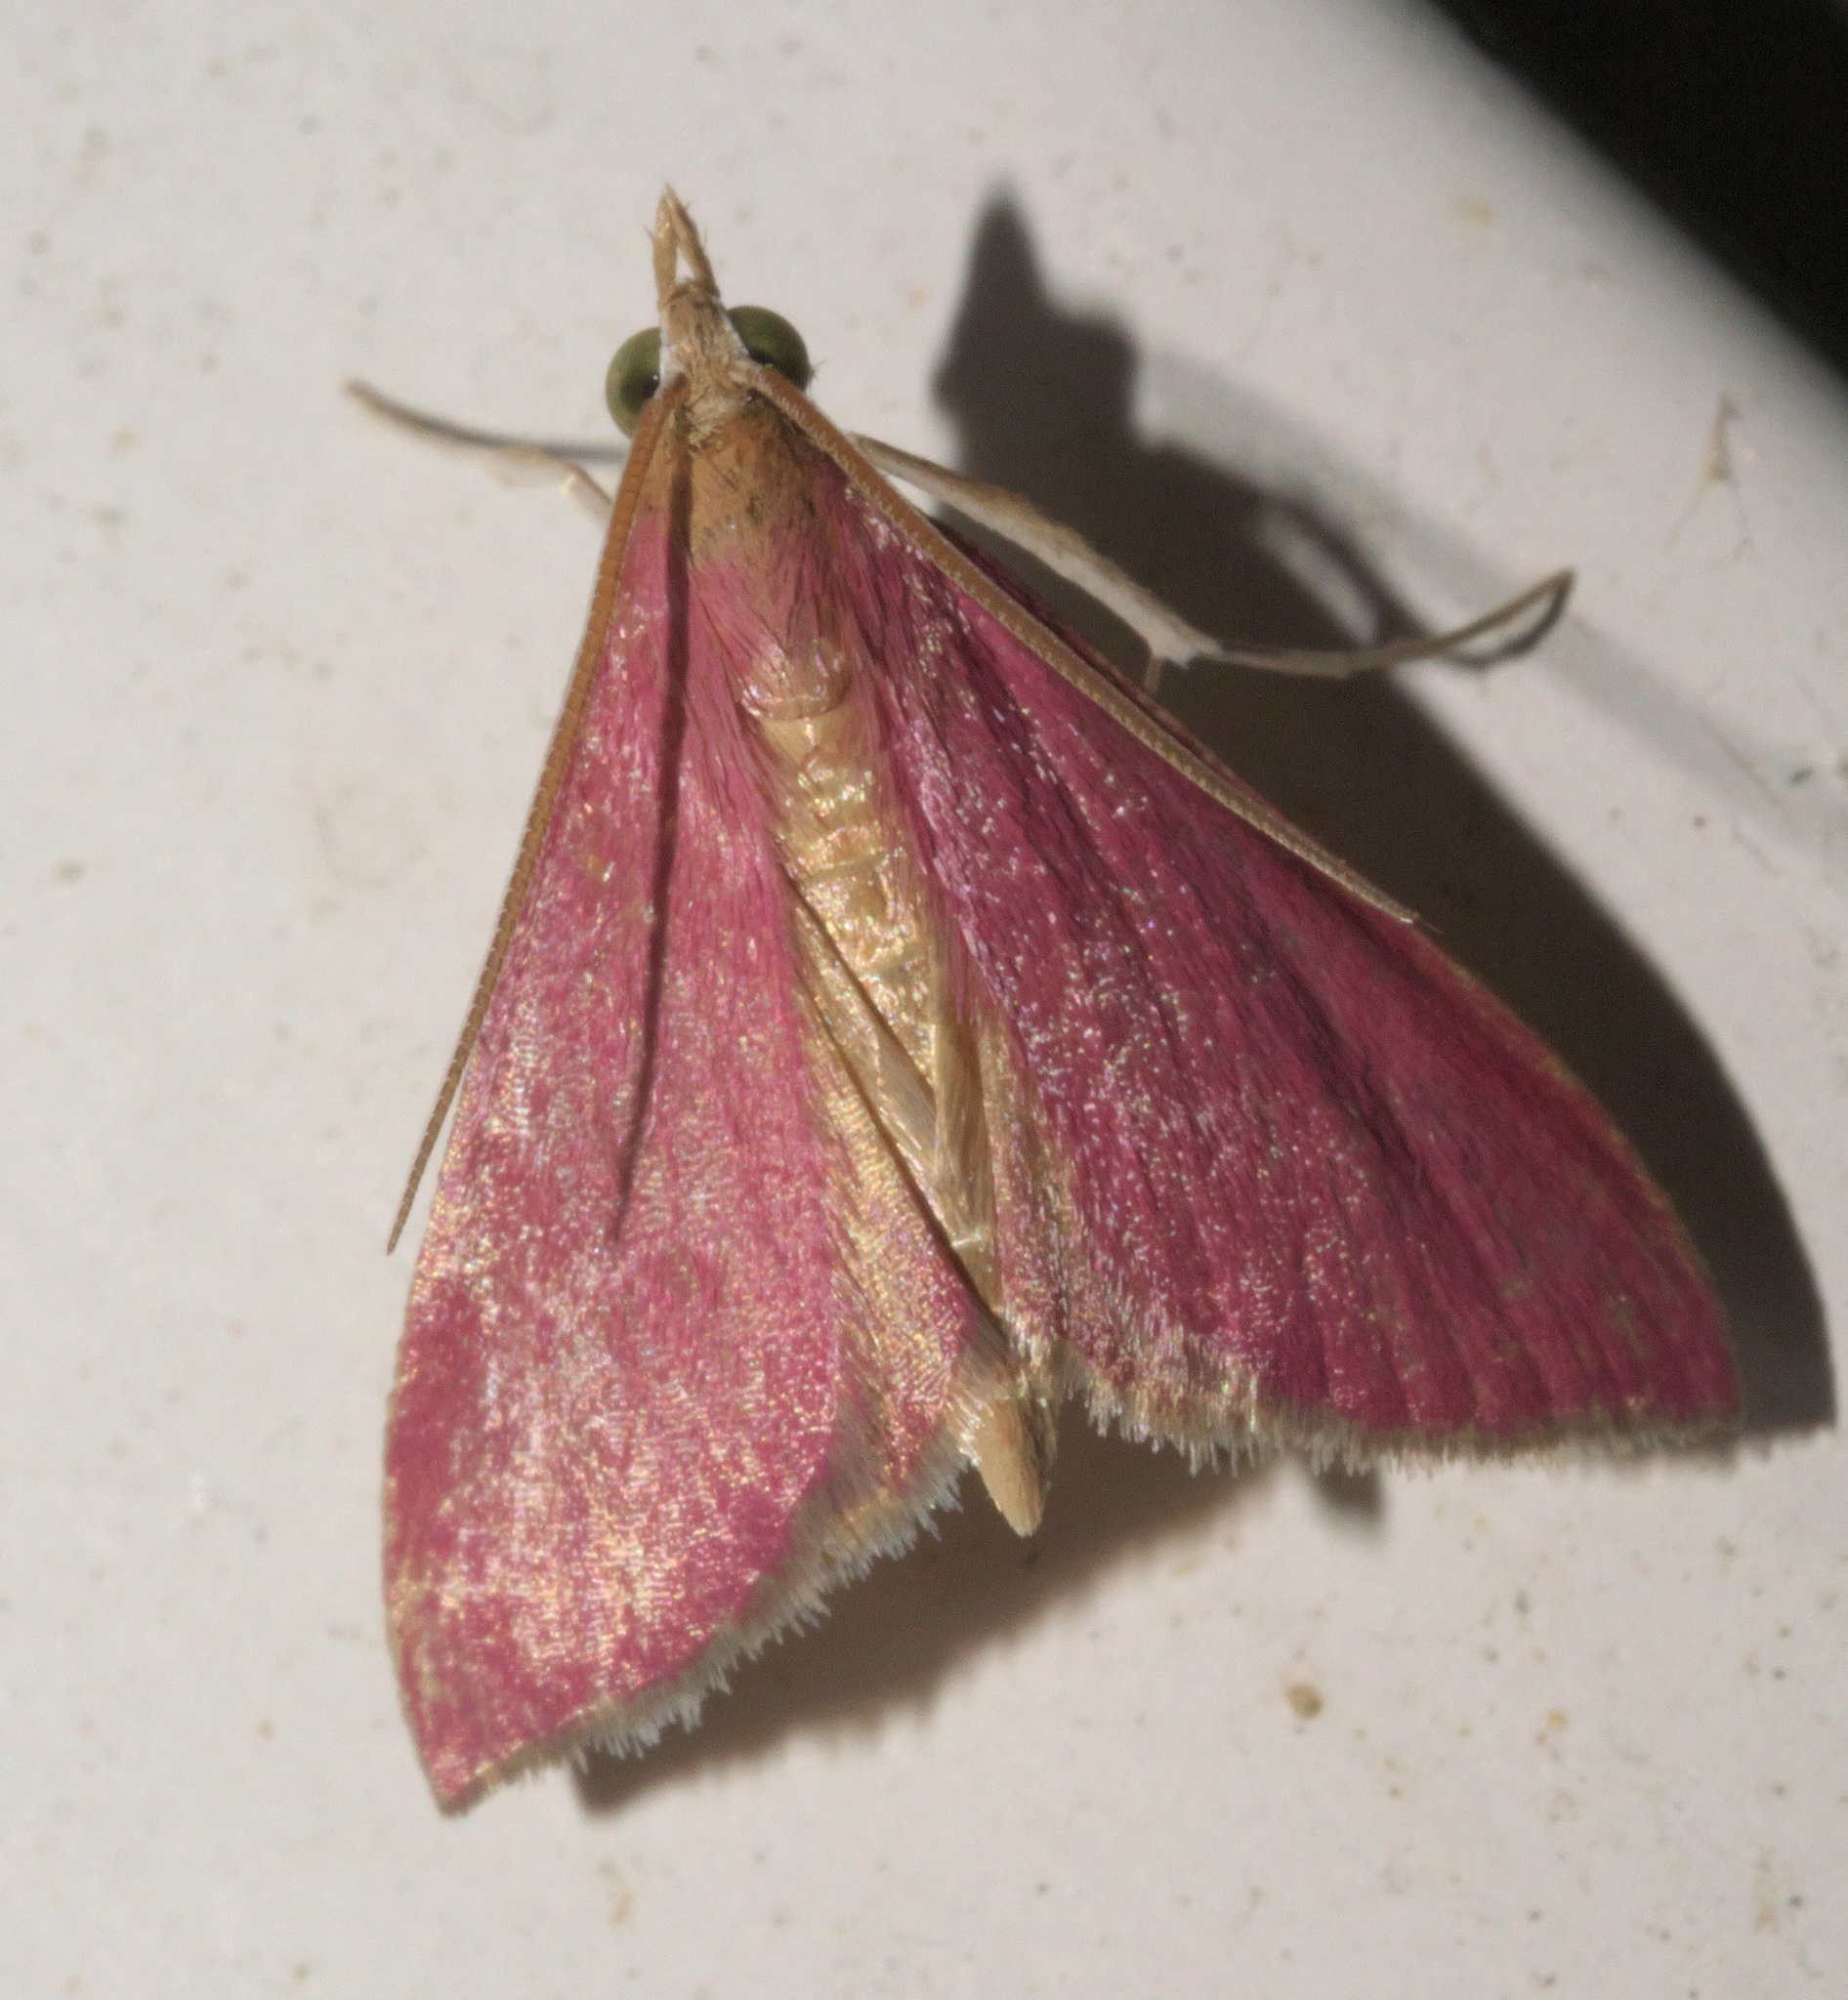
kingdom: Animalia
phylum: Arthropoda
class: Insecta
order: Lepidoptera
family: Crambidae
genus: Pyrausta
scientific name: Pyrausta inornatalis
